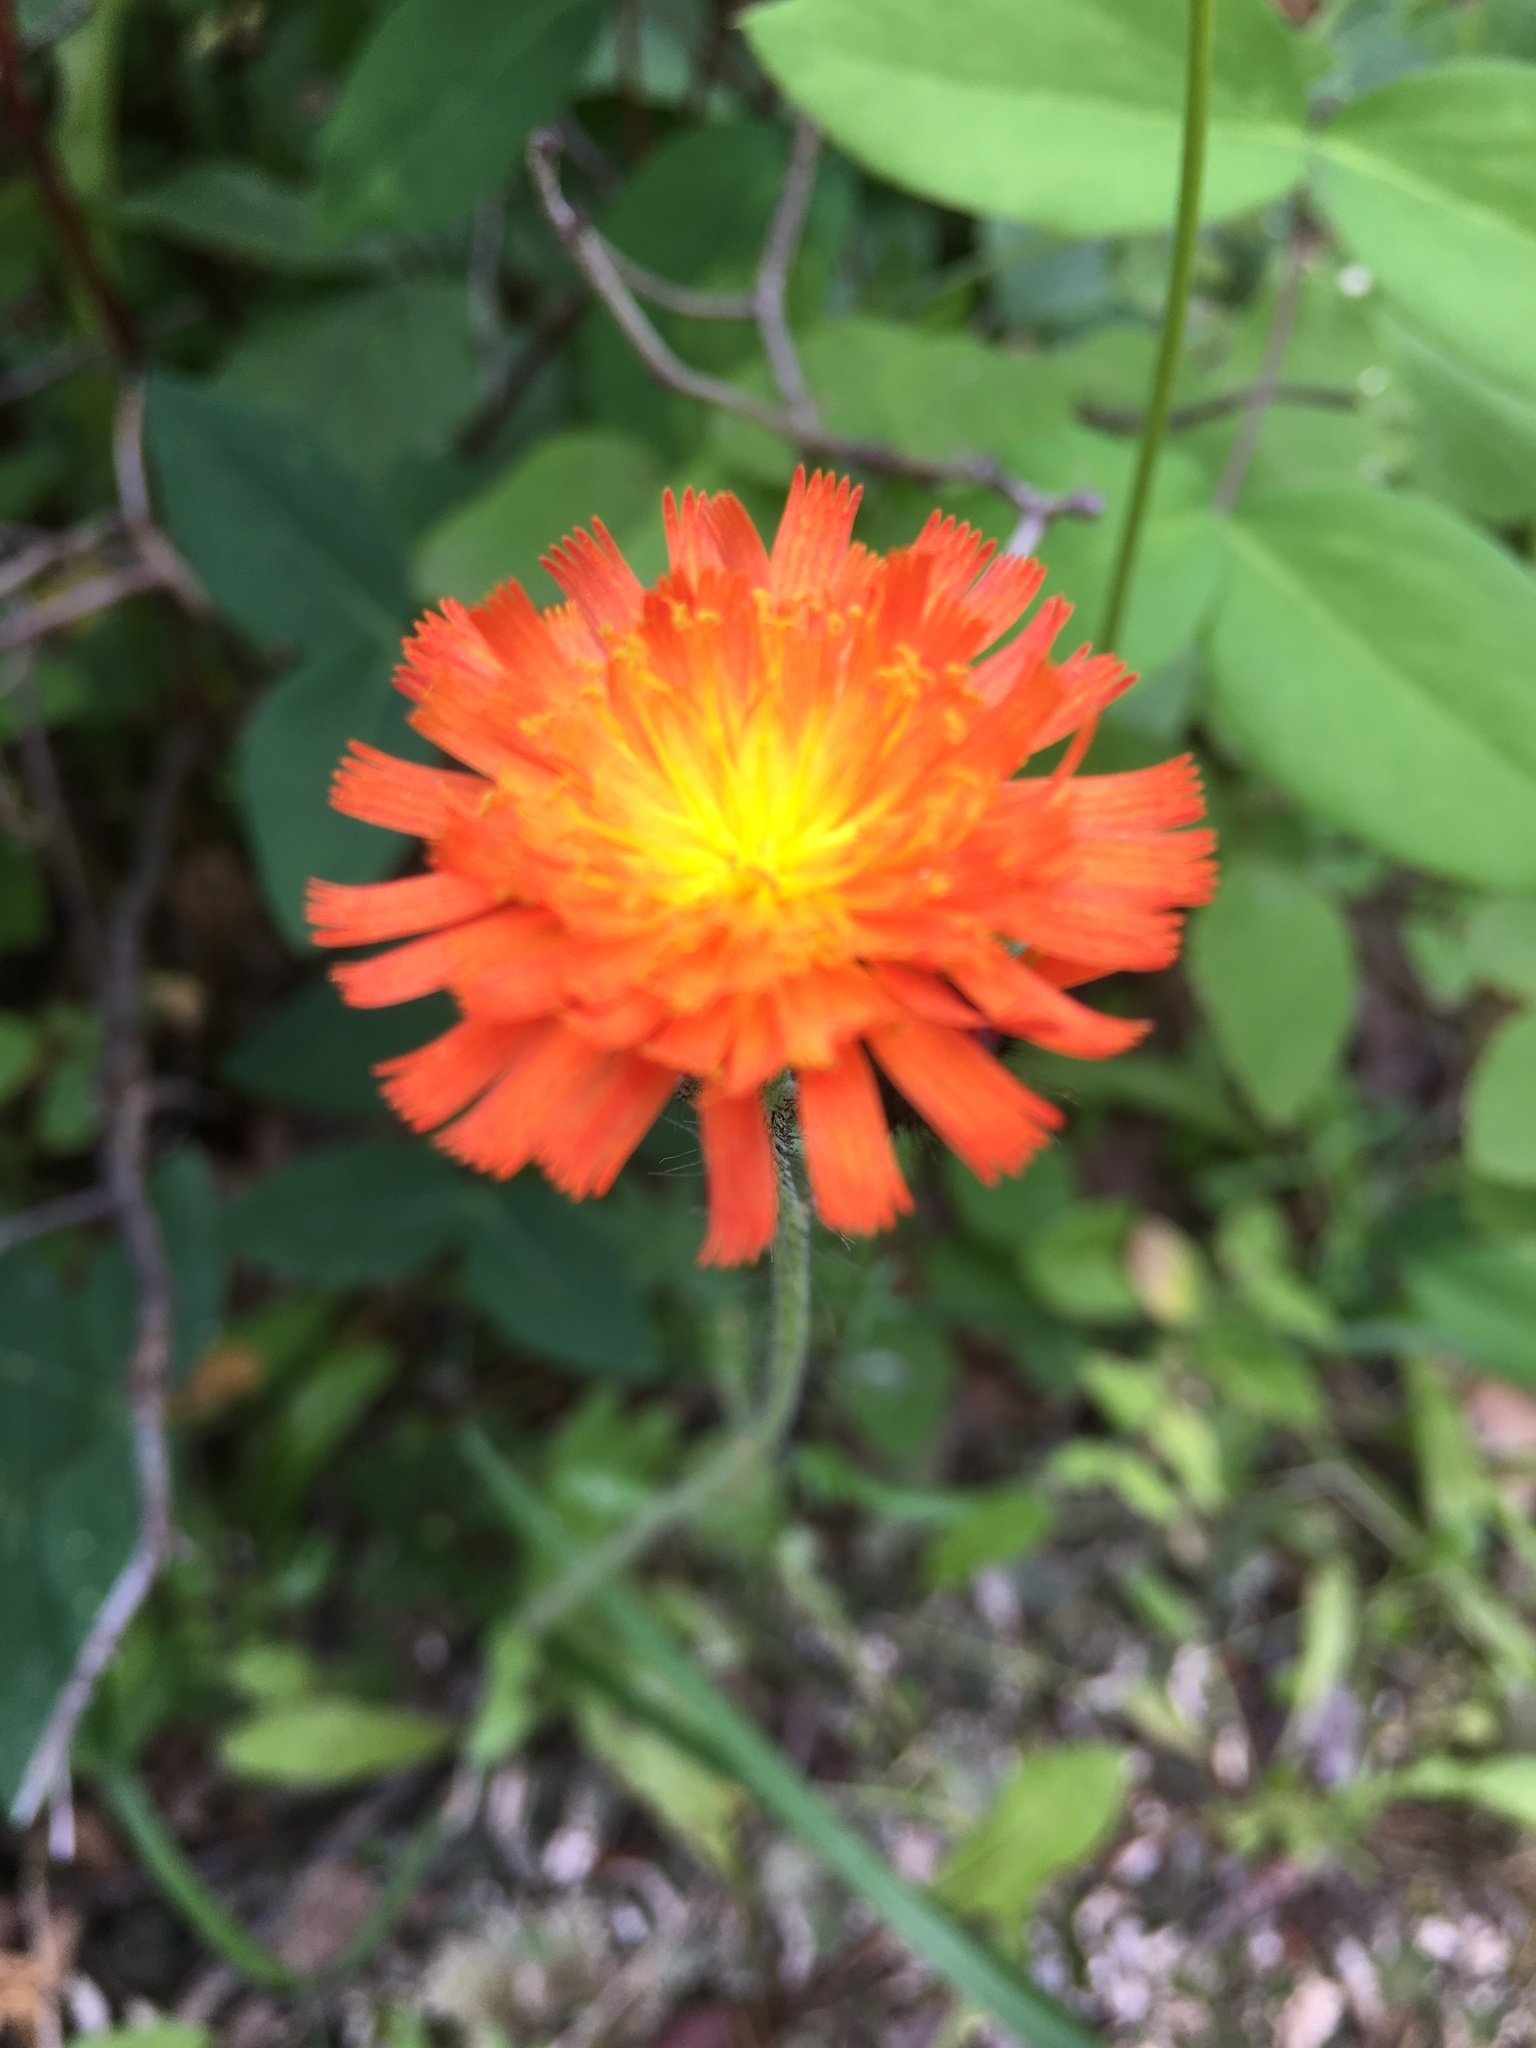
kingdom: Plantae
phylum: Tracheophyta
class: Magnoliopsida
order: Asterales
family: Asteraceae
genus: Pilosella
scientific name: Pilosella aurantiaca
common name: Fox-and-cubs
